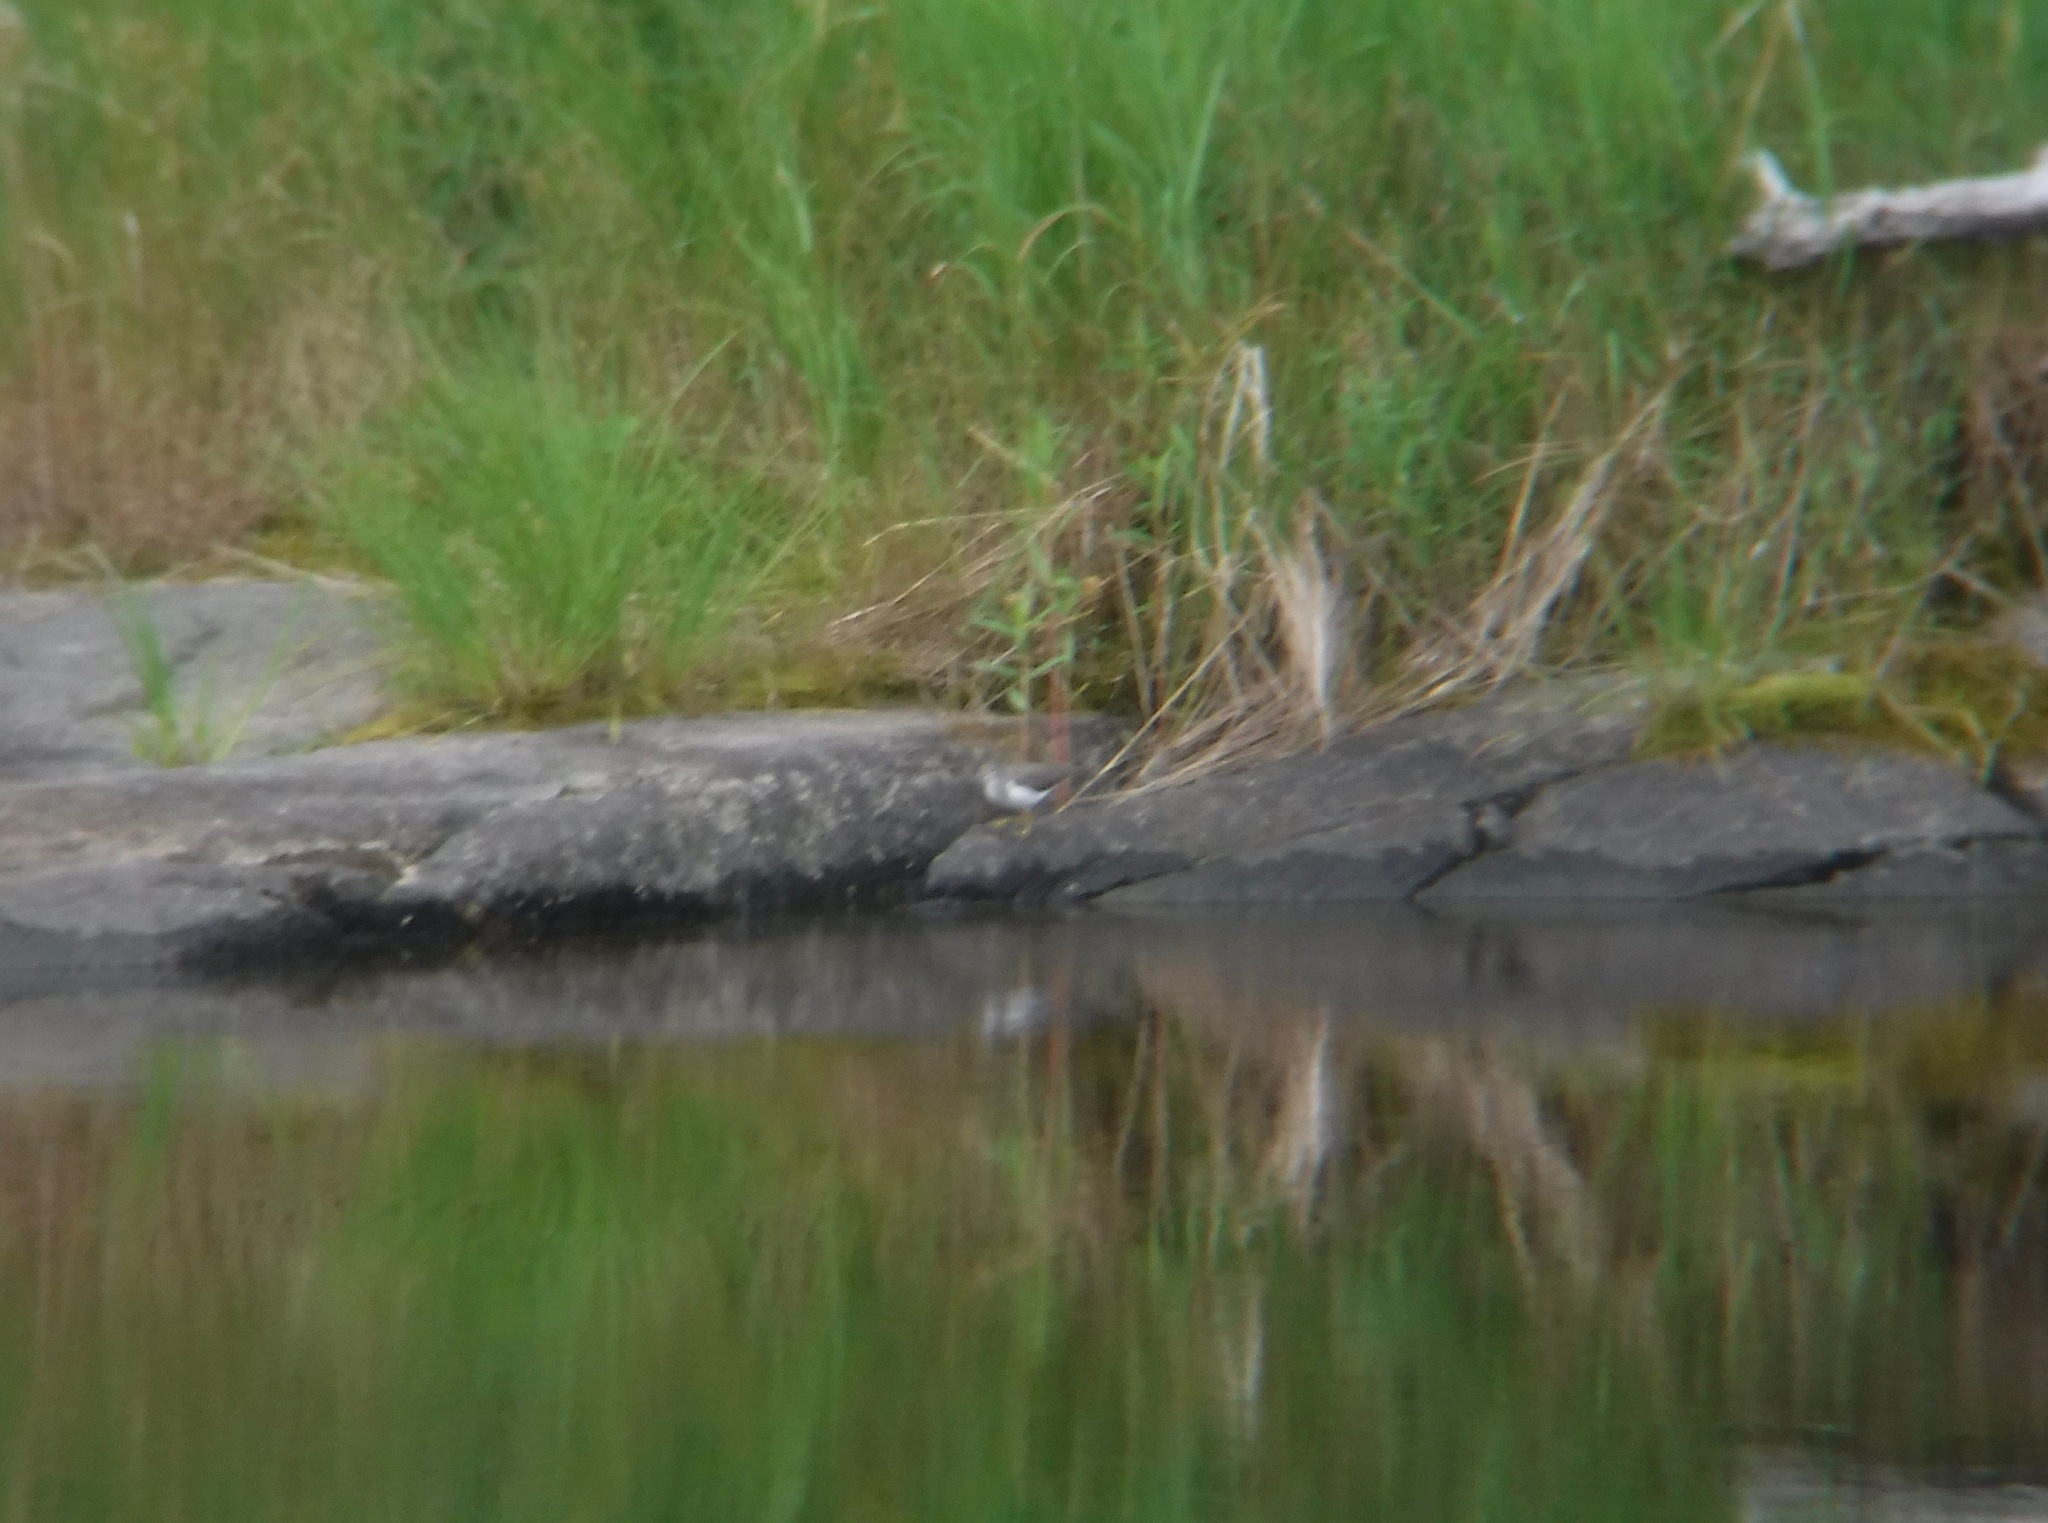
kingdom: Animalia
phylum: Chordata
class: Aves
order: Charadriiformes
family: Scolopacidae
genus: Actitis
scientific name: Actitis macularius
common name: Spotted sandpiper
